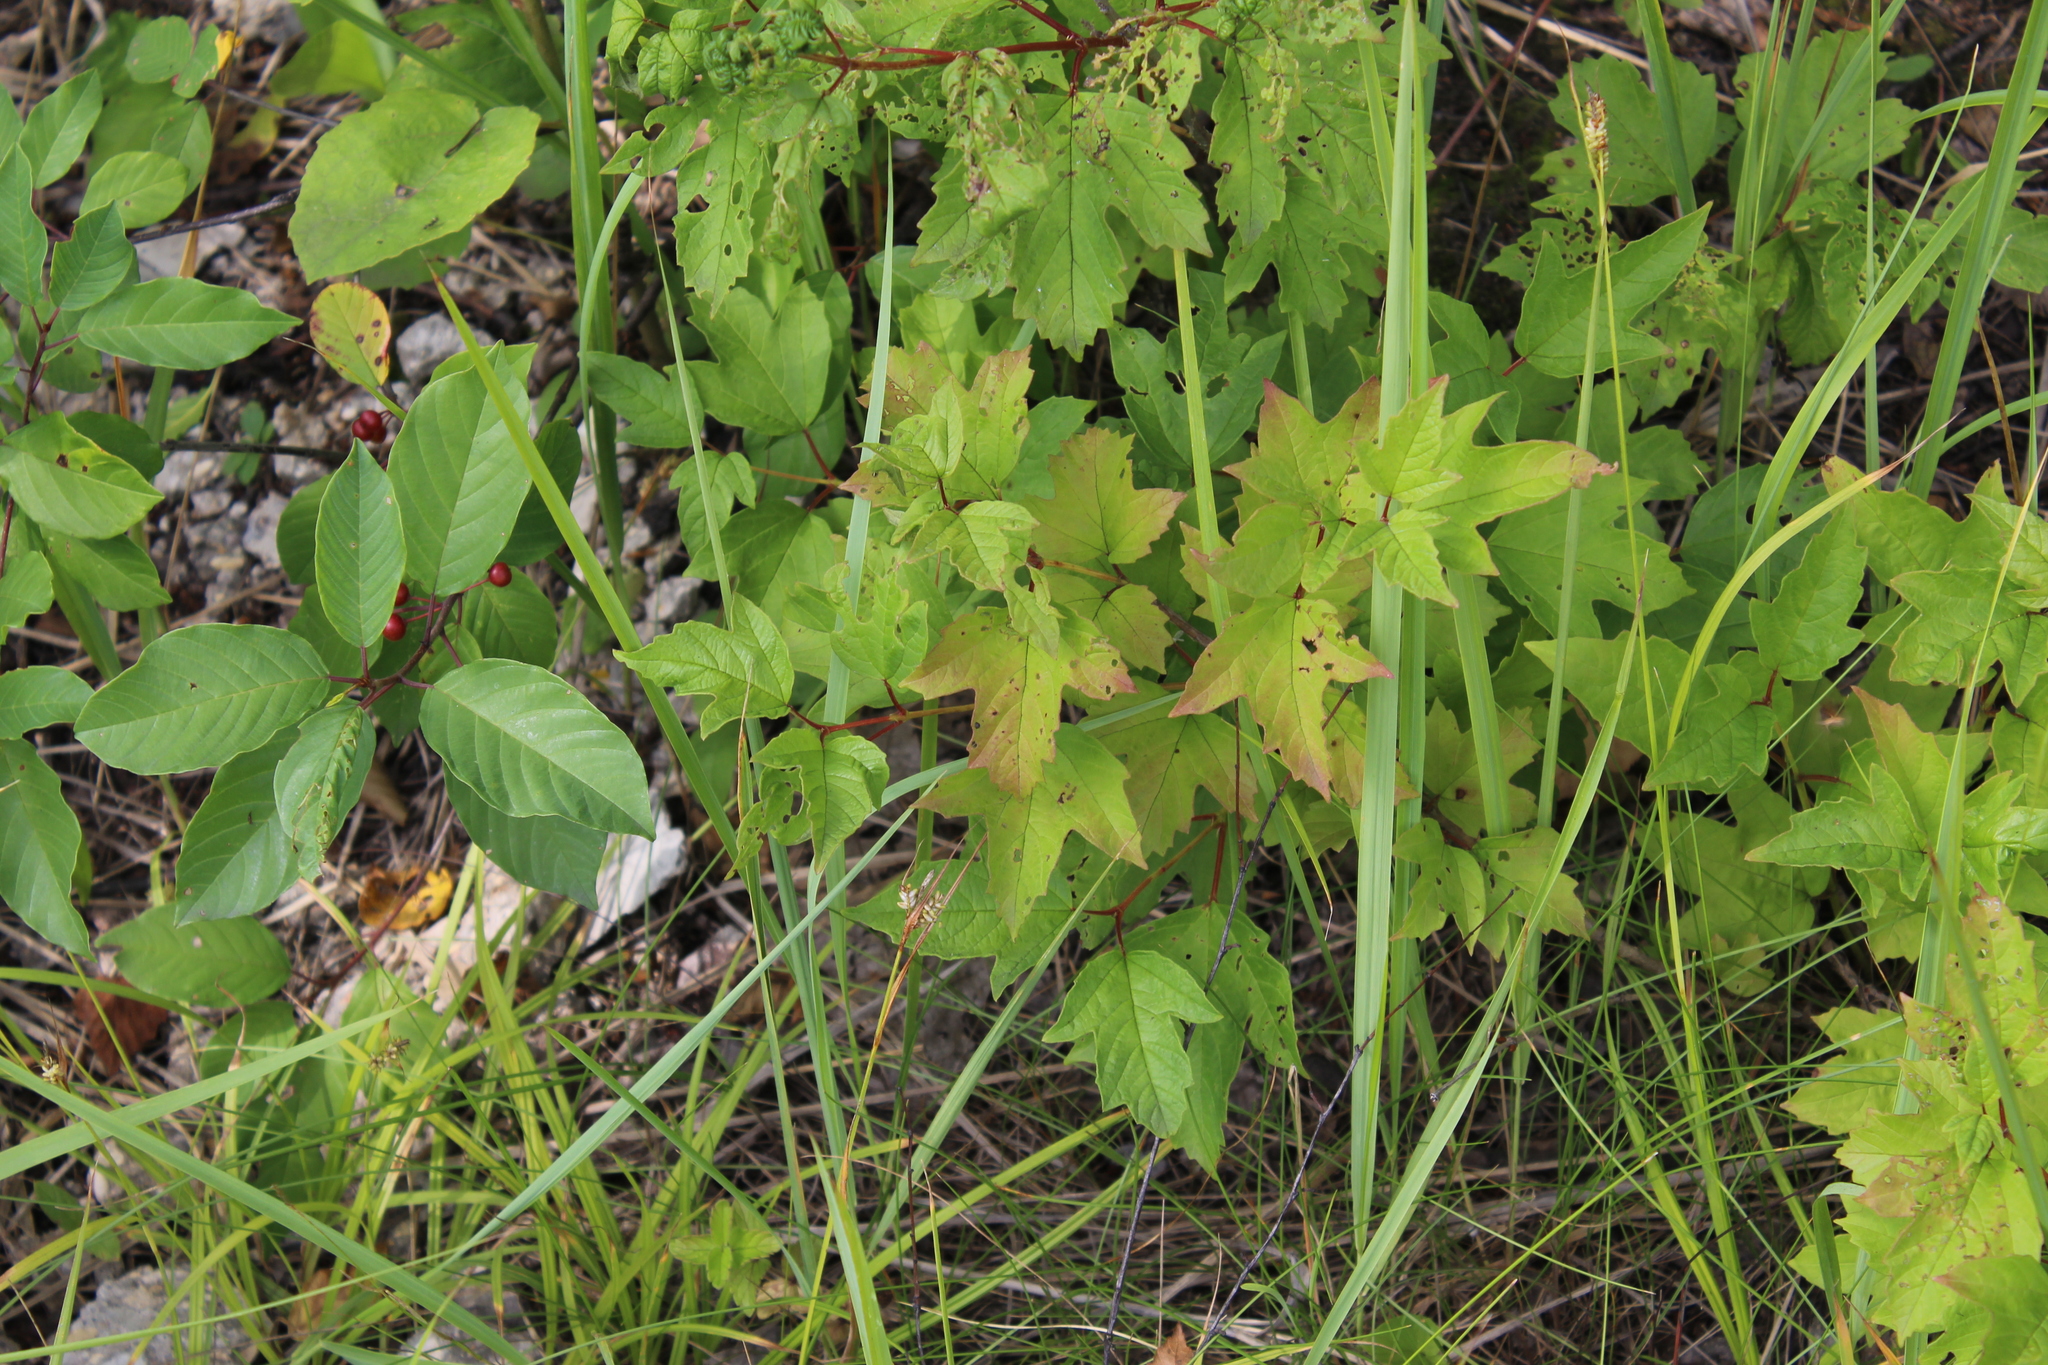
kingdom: Plantae
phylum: Tracheophyta
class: Magnoliopsida
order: Dipsacales
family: Viburnaceae
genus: Viburnum
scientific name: Viburnum opulus
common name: Guelder-rose
